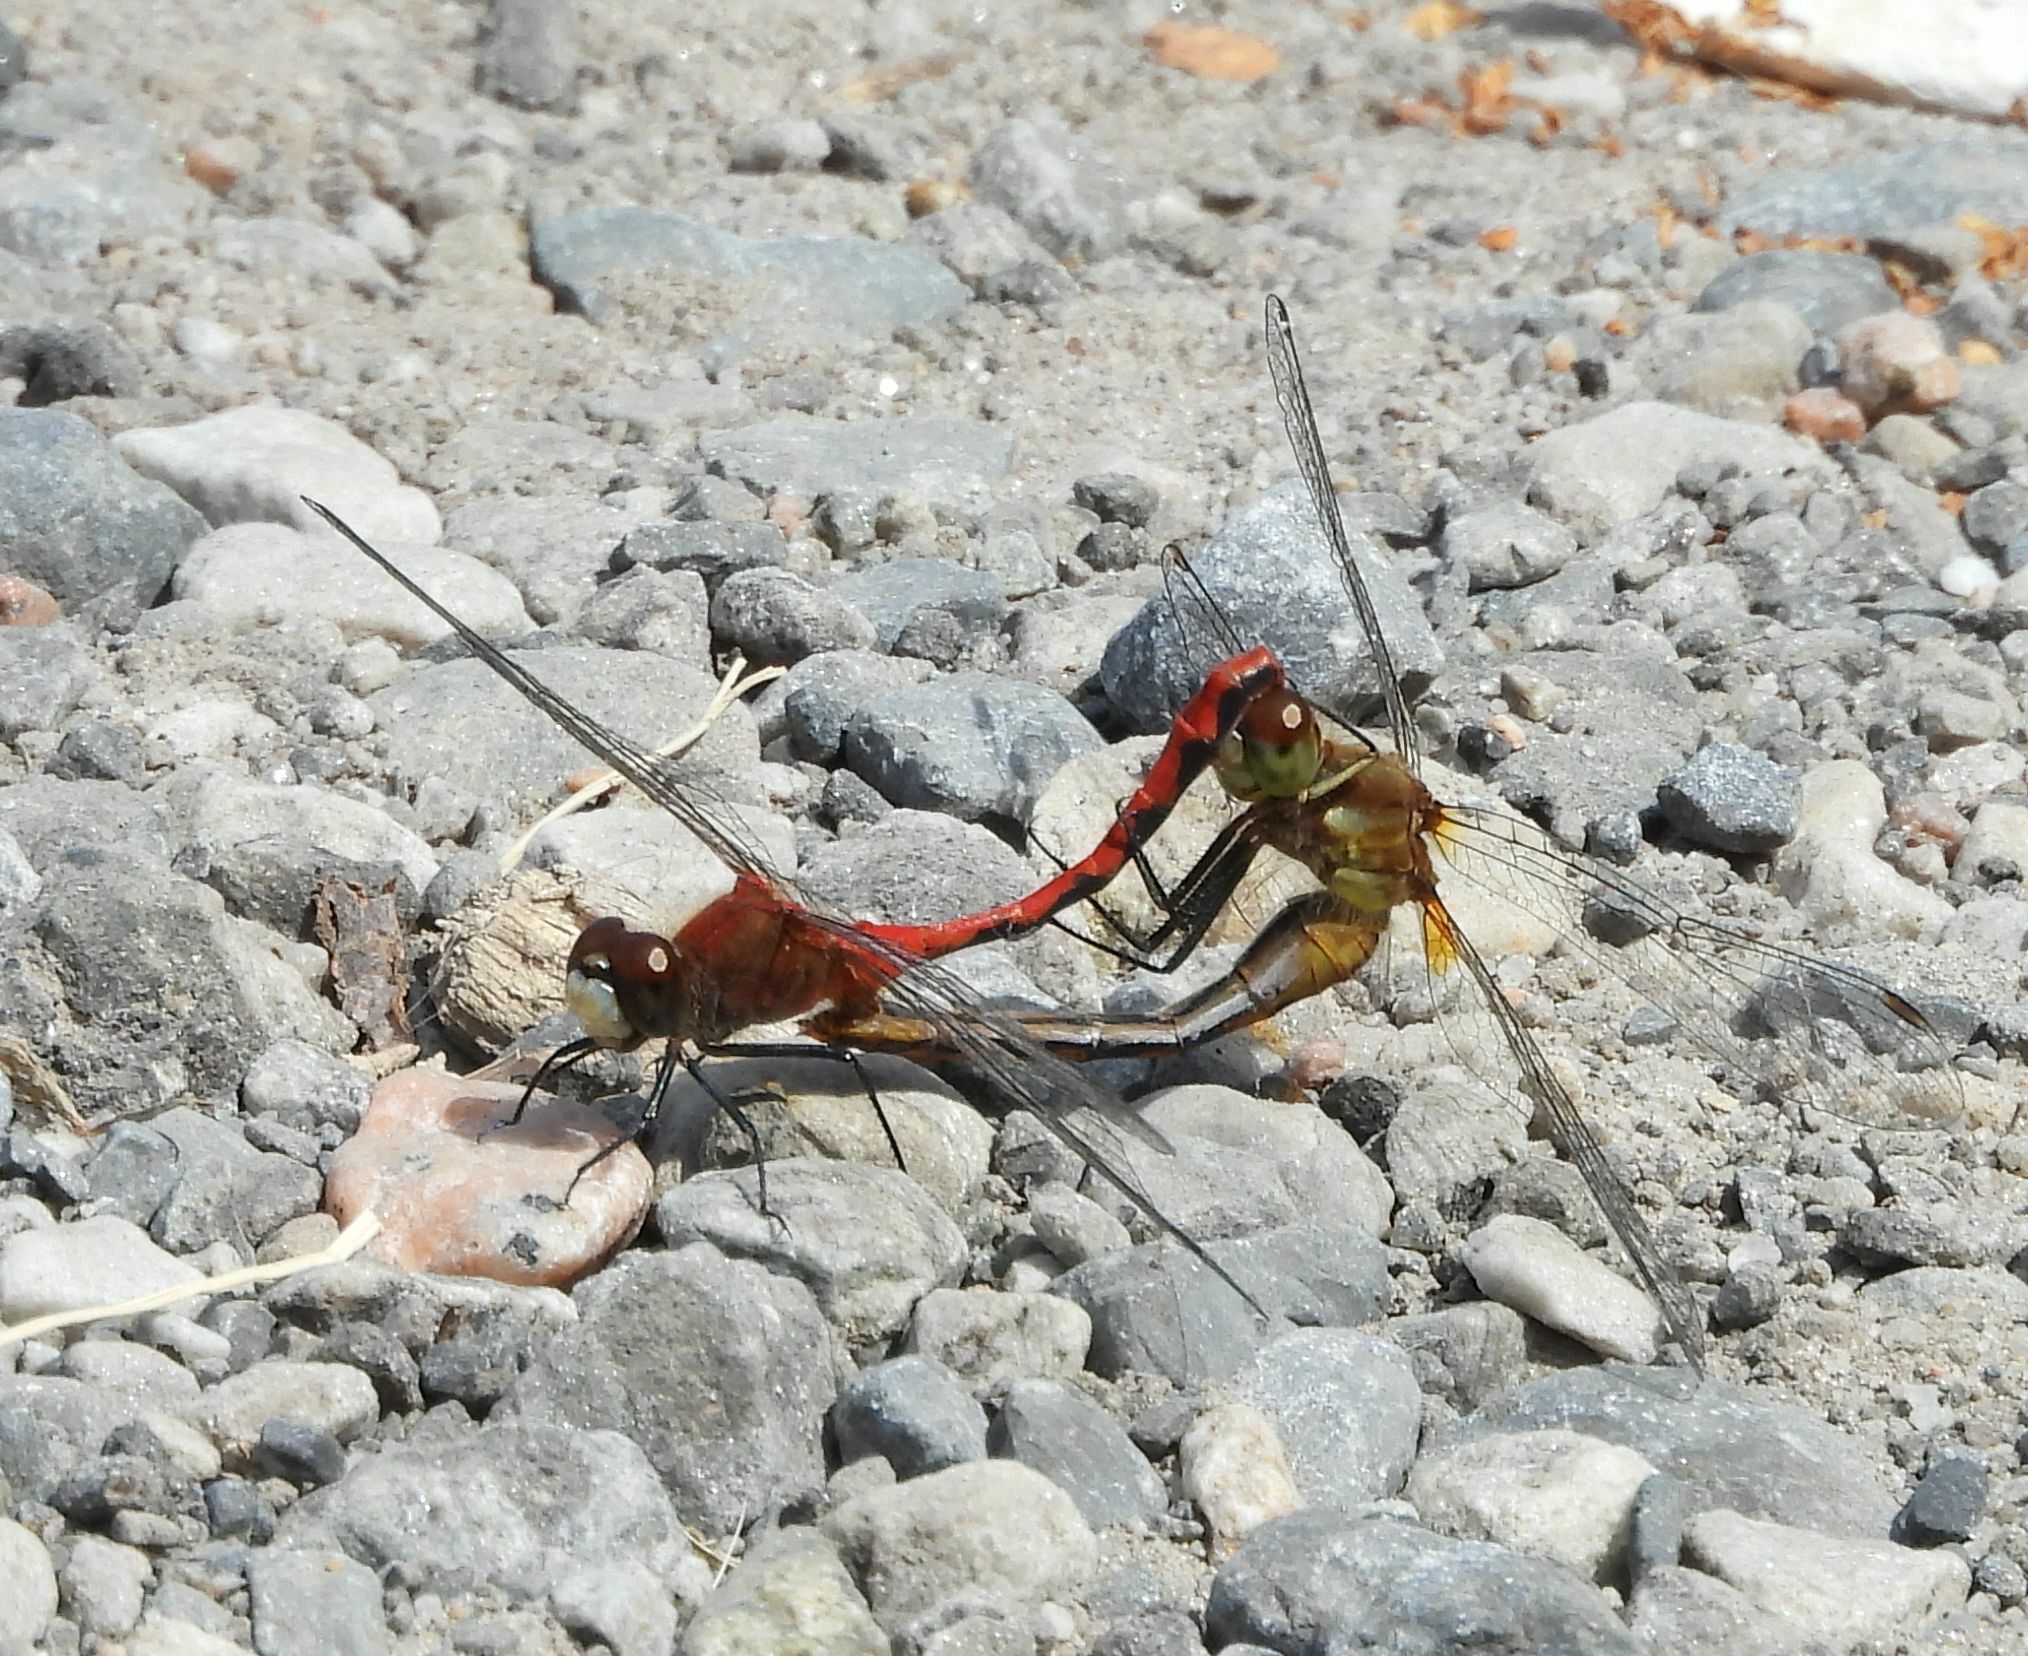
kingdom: Animalia
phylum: Arthropoda
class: Insecta
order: Odonata
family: Libellulidae
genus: Sympetrum
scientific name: Sympetrum obtrusum
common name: White-faced meadowhawk
